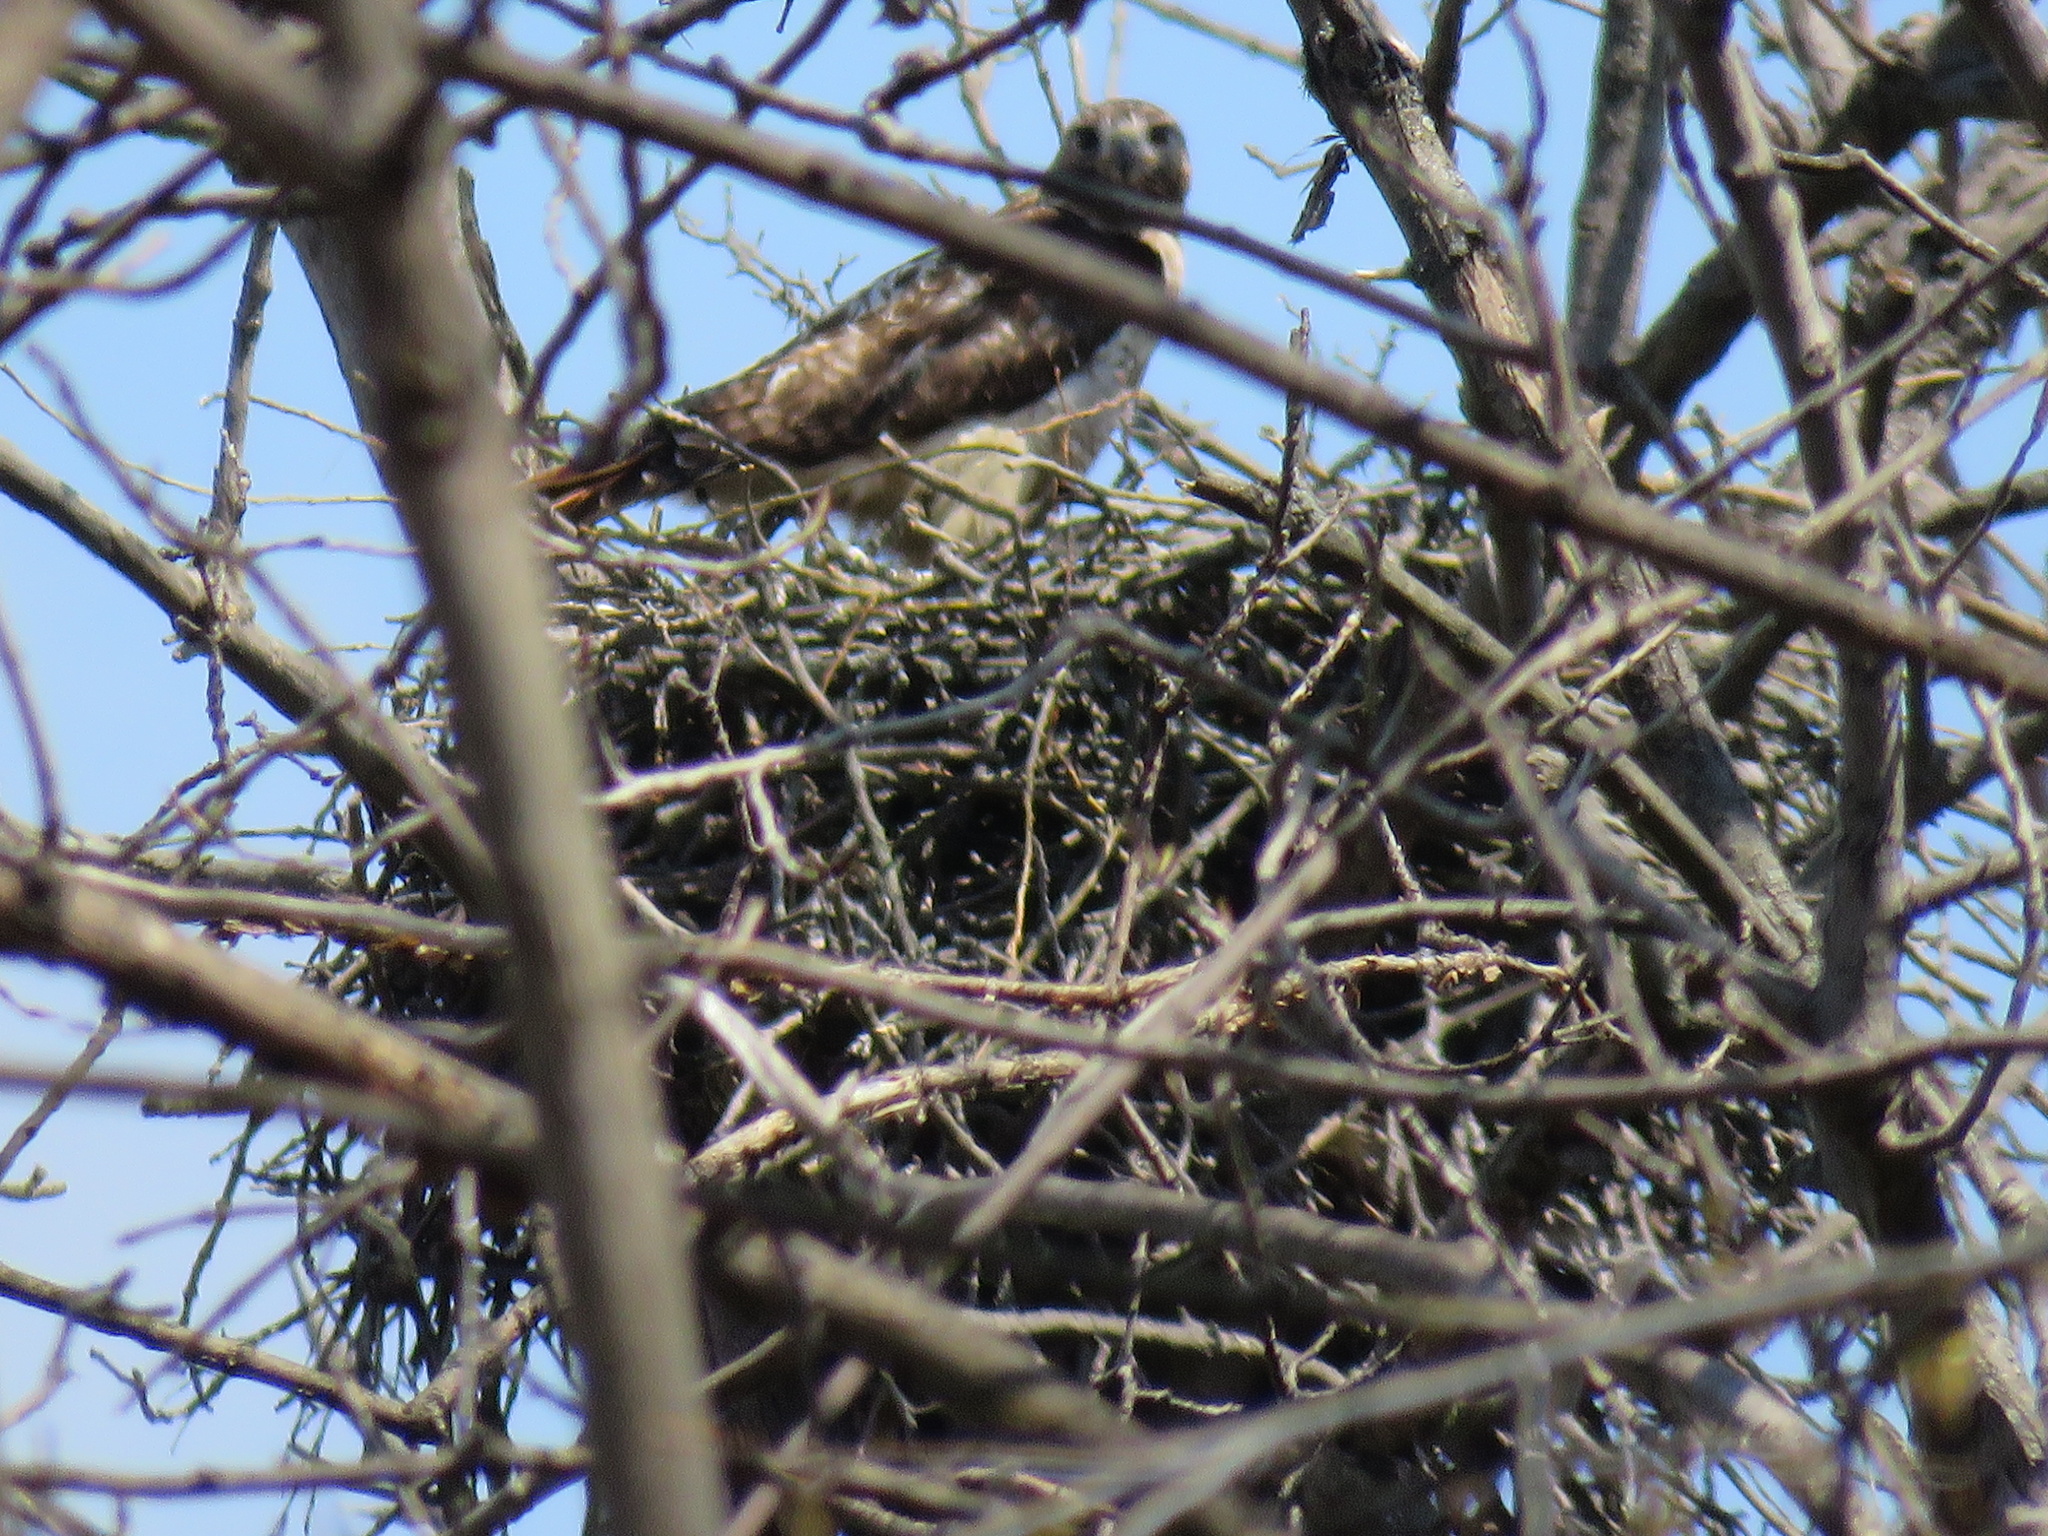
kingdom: Animalia
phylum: Chordata
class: Aves
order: Accipitriformes
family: Accipitridae
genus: Buteo
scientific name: Buteo jamaicensis
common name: Red-tailed hawk
